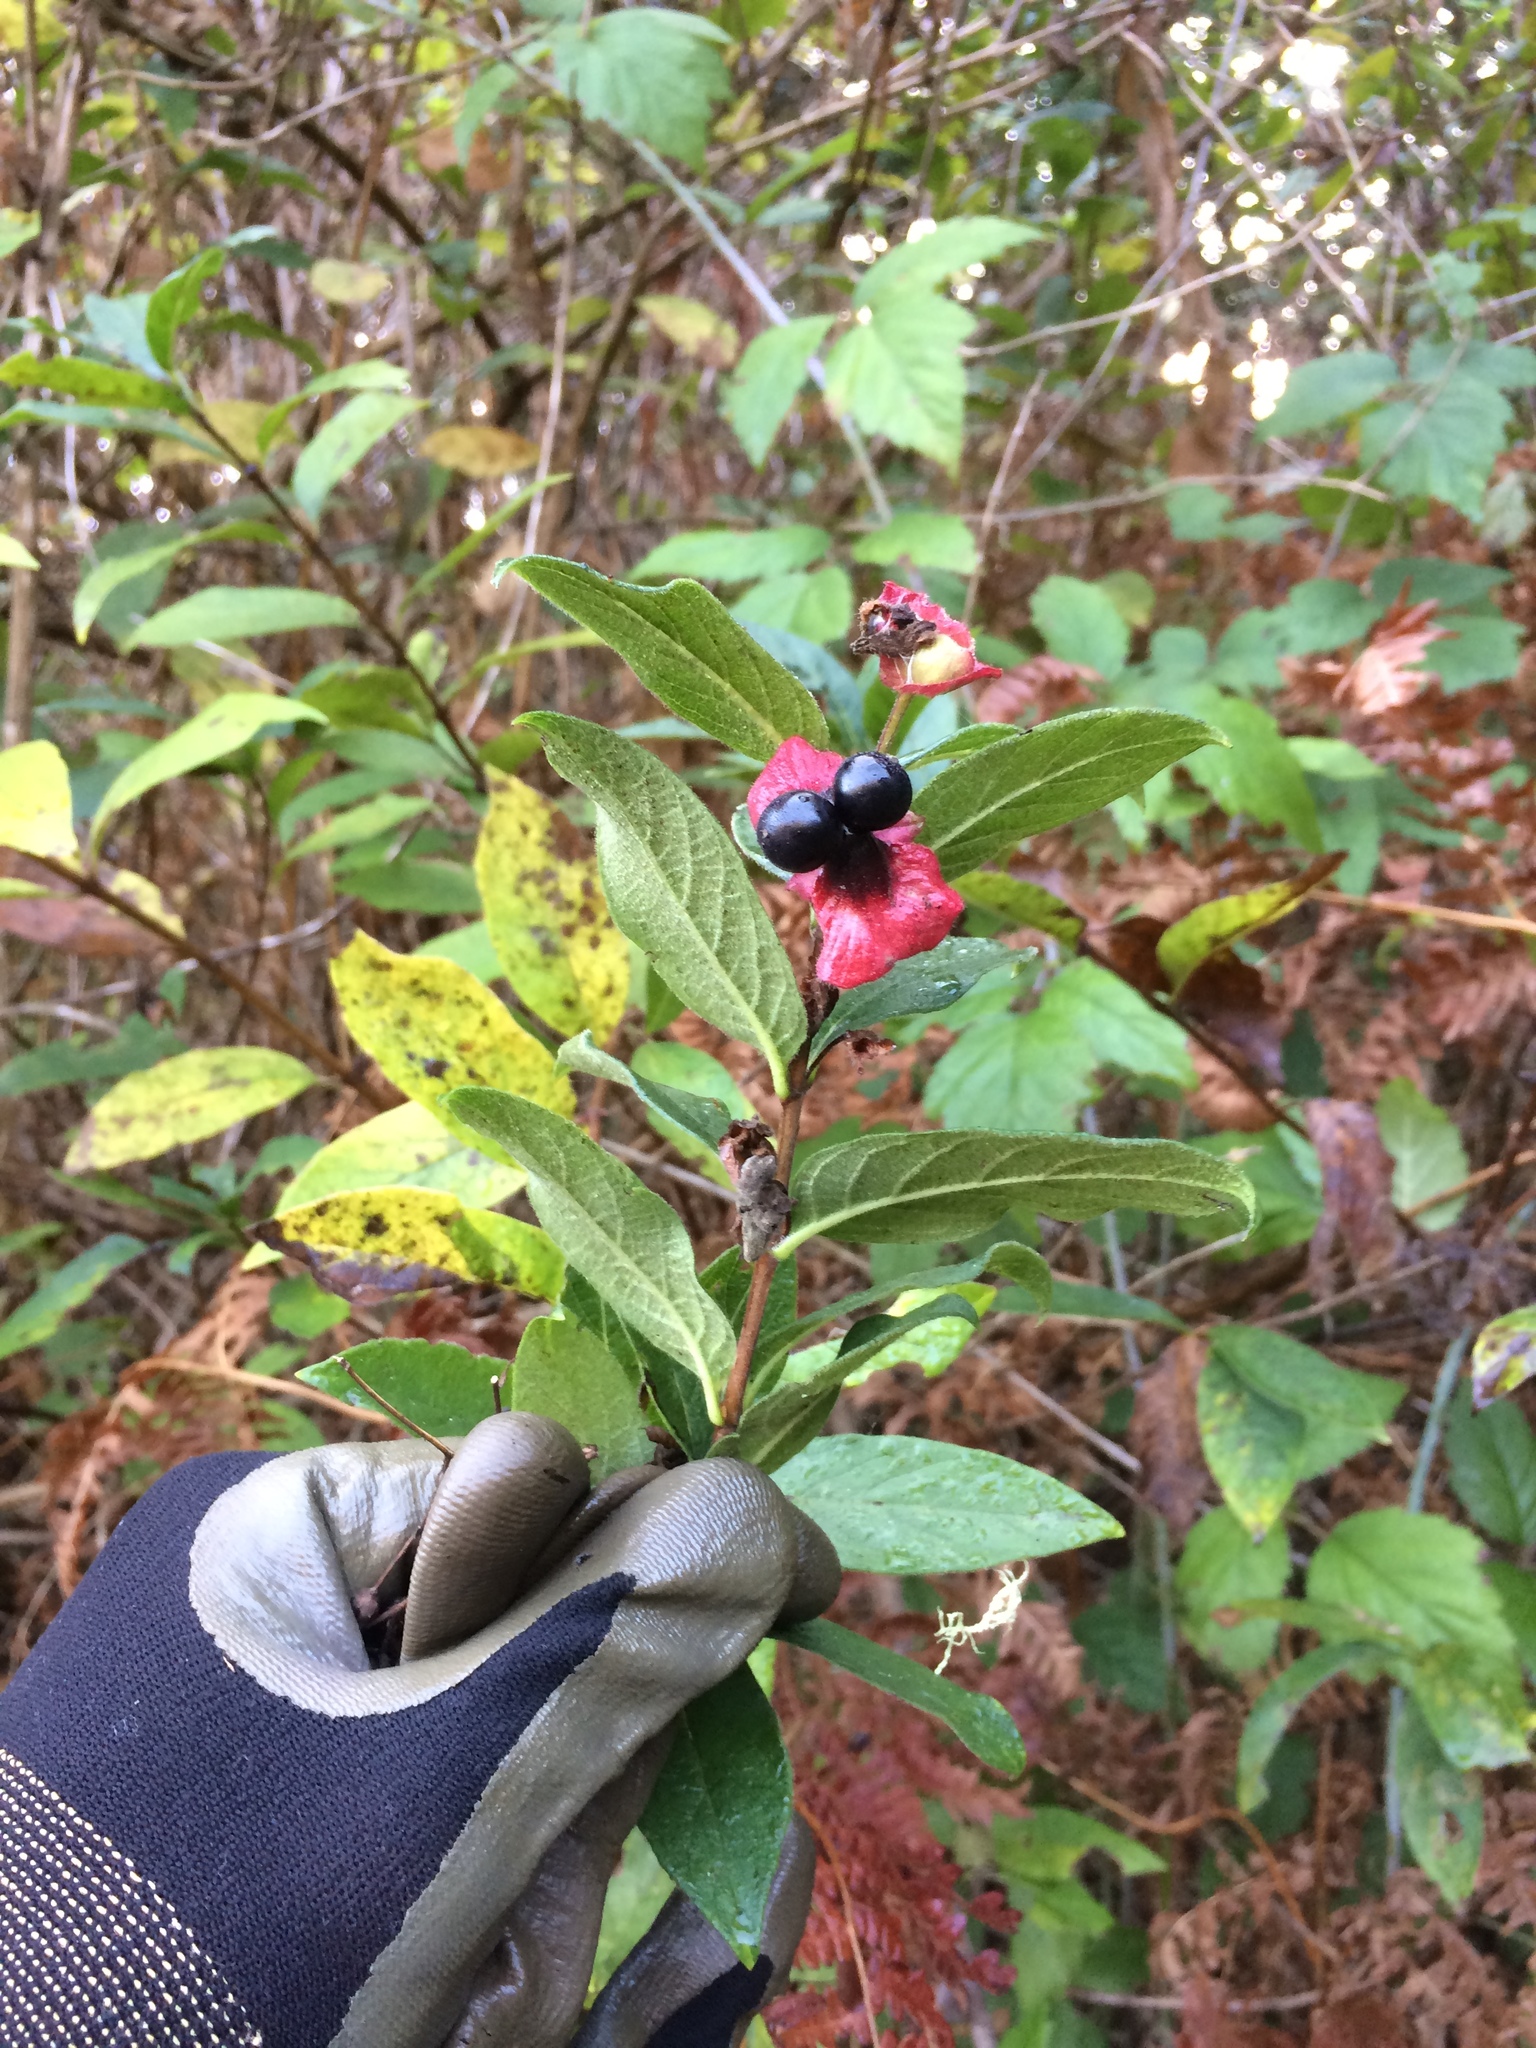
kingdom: Plantae
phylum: Tracheophyta
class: Magnoliopsida
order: Dipsacales
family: Caprifoliaceae
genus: Lonicera
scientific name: Lonicera involucrata
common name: Californian honeysuckle
